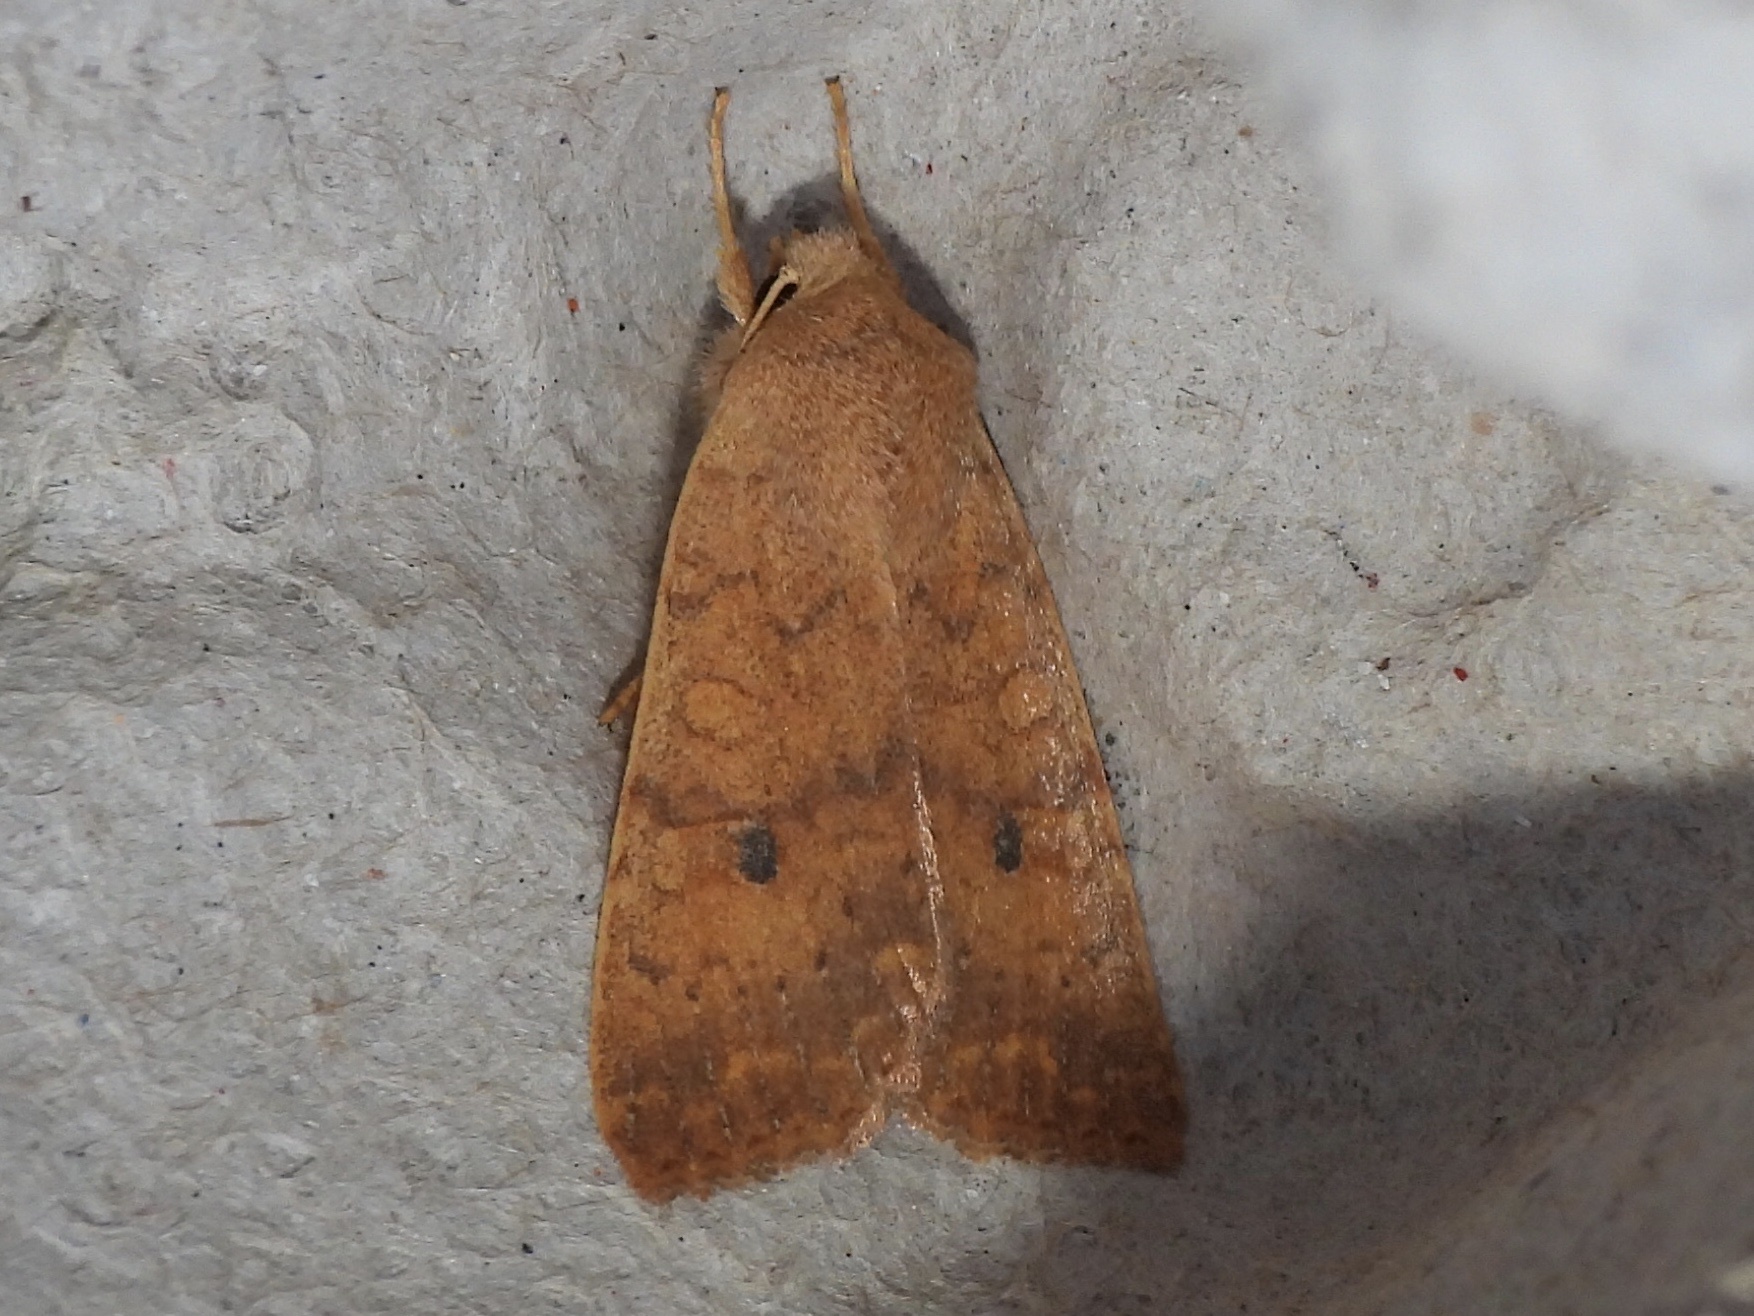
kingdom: Animalia
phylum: Arthropoda
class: Insecta
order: Lepidoptera
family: Noctuidae
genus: Agrochola
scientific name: Agrochola bicolorago
